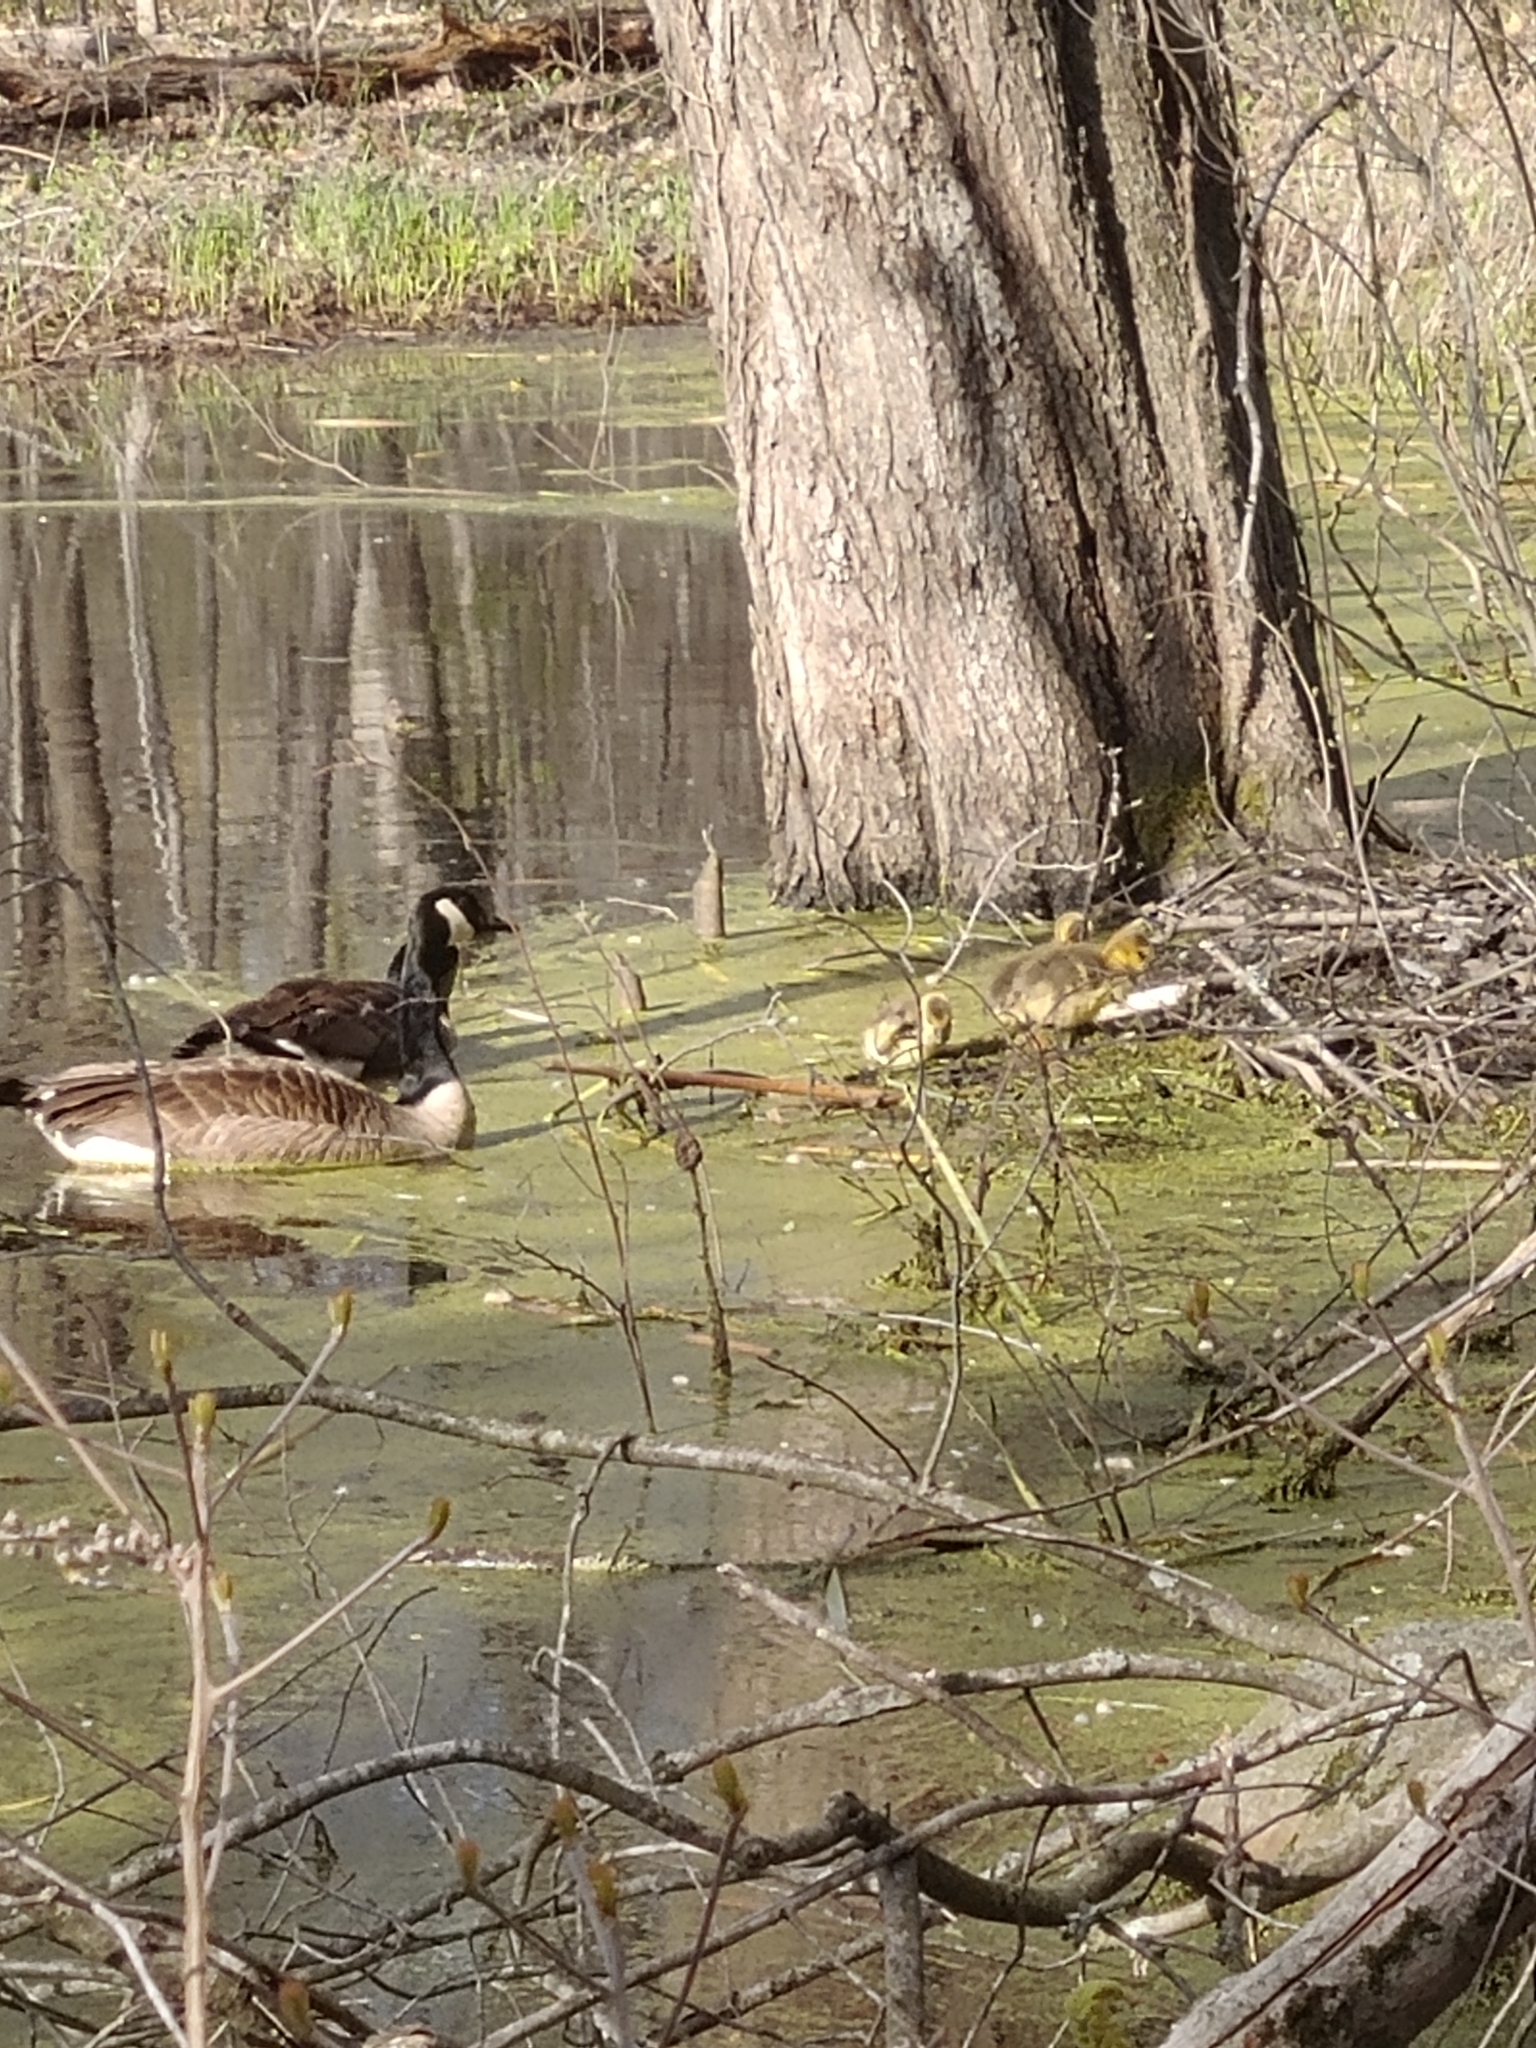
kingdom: Animalia
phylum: Chordata
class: Aves
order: Anseriformes
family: Anatidae
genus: Branta
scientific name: Branta canadensis
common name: Canada goose
